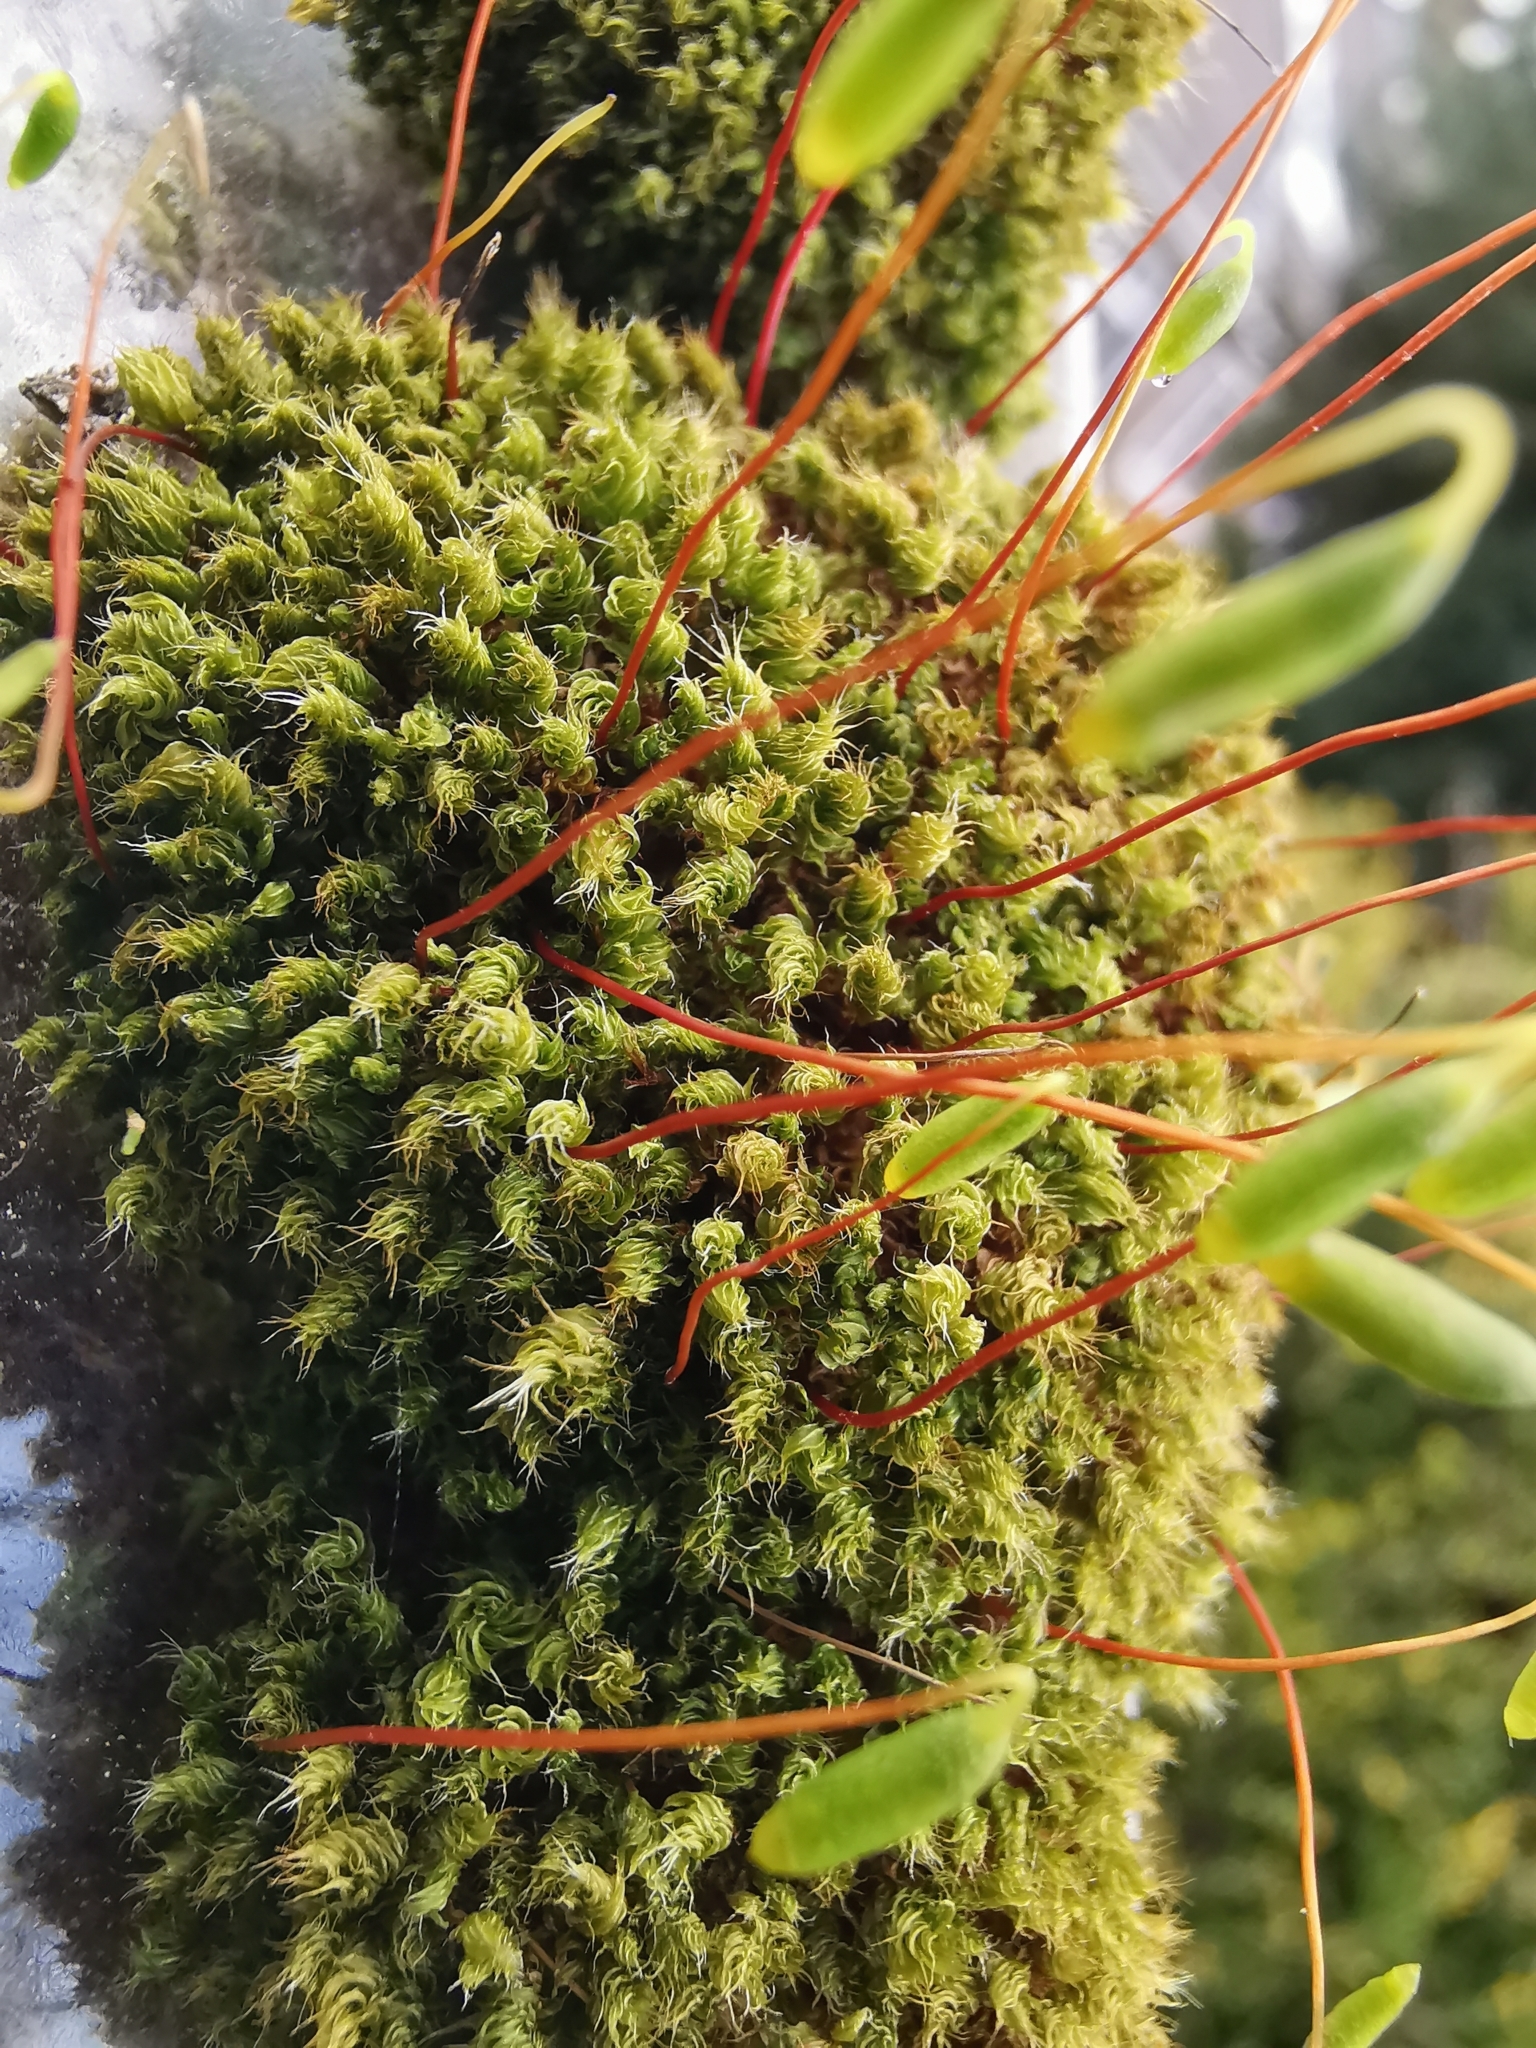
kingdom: Plantae
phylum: Bryophyta
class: Bryopsida
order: Bryales
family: Bryaceae
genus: Rosulabryum
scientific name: Rosulabryum capillare
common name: Capillary thread-moss
